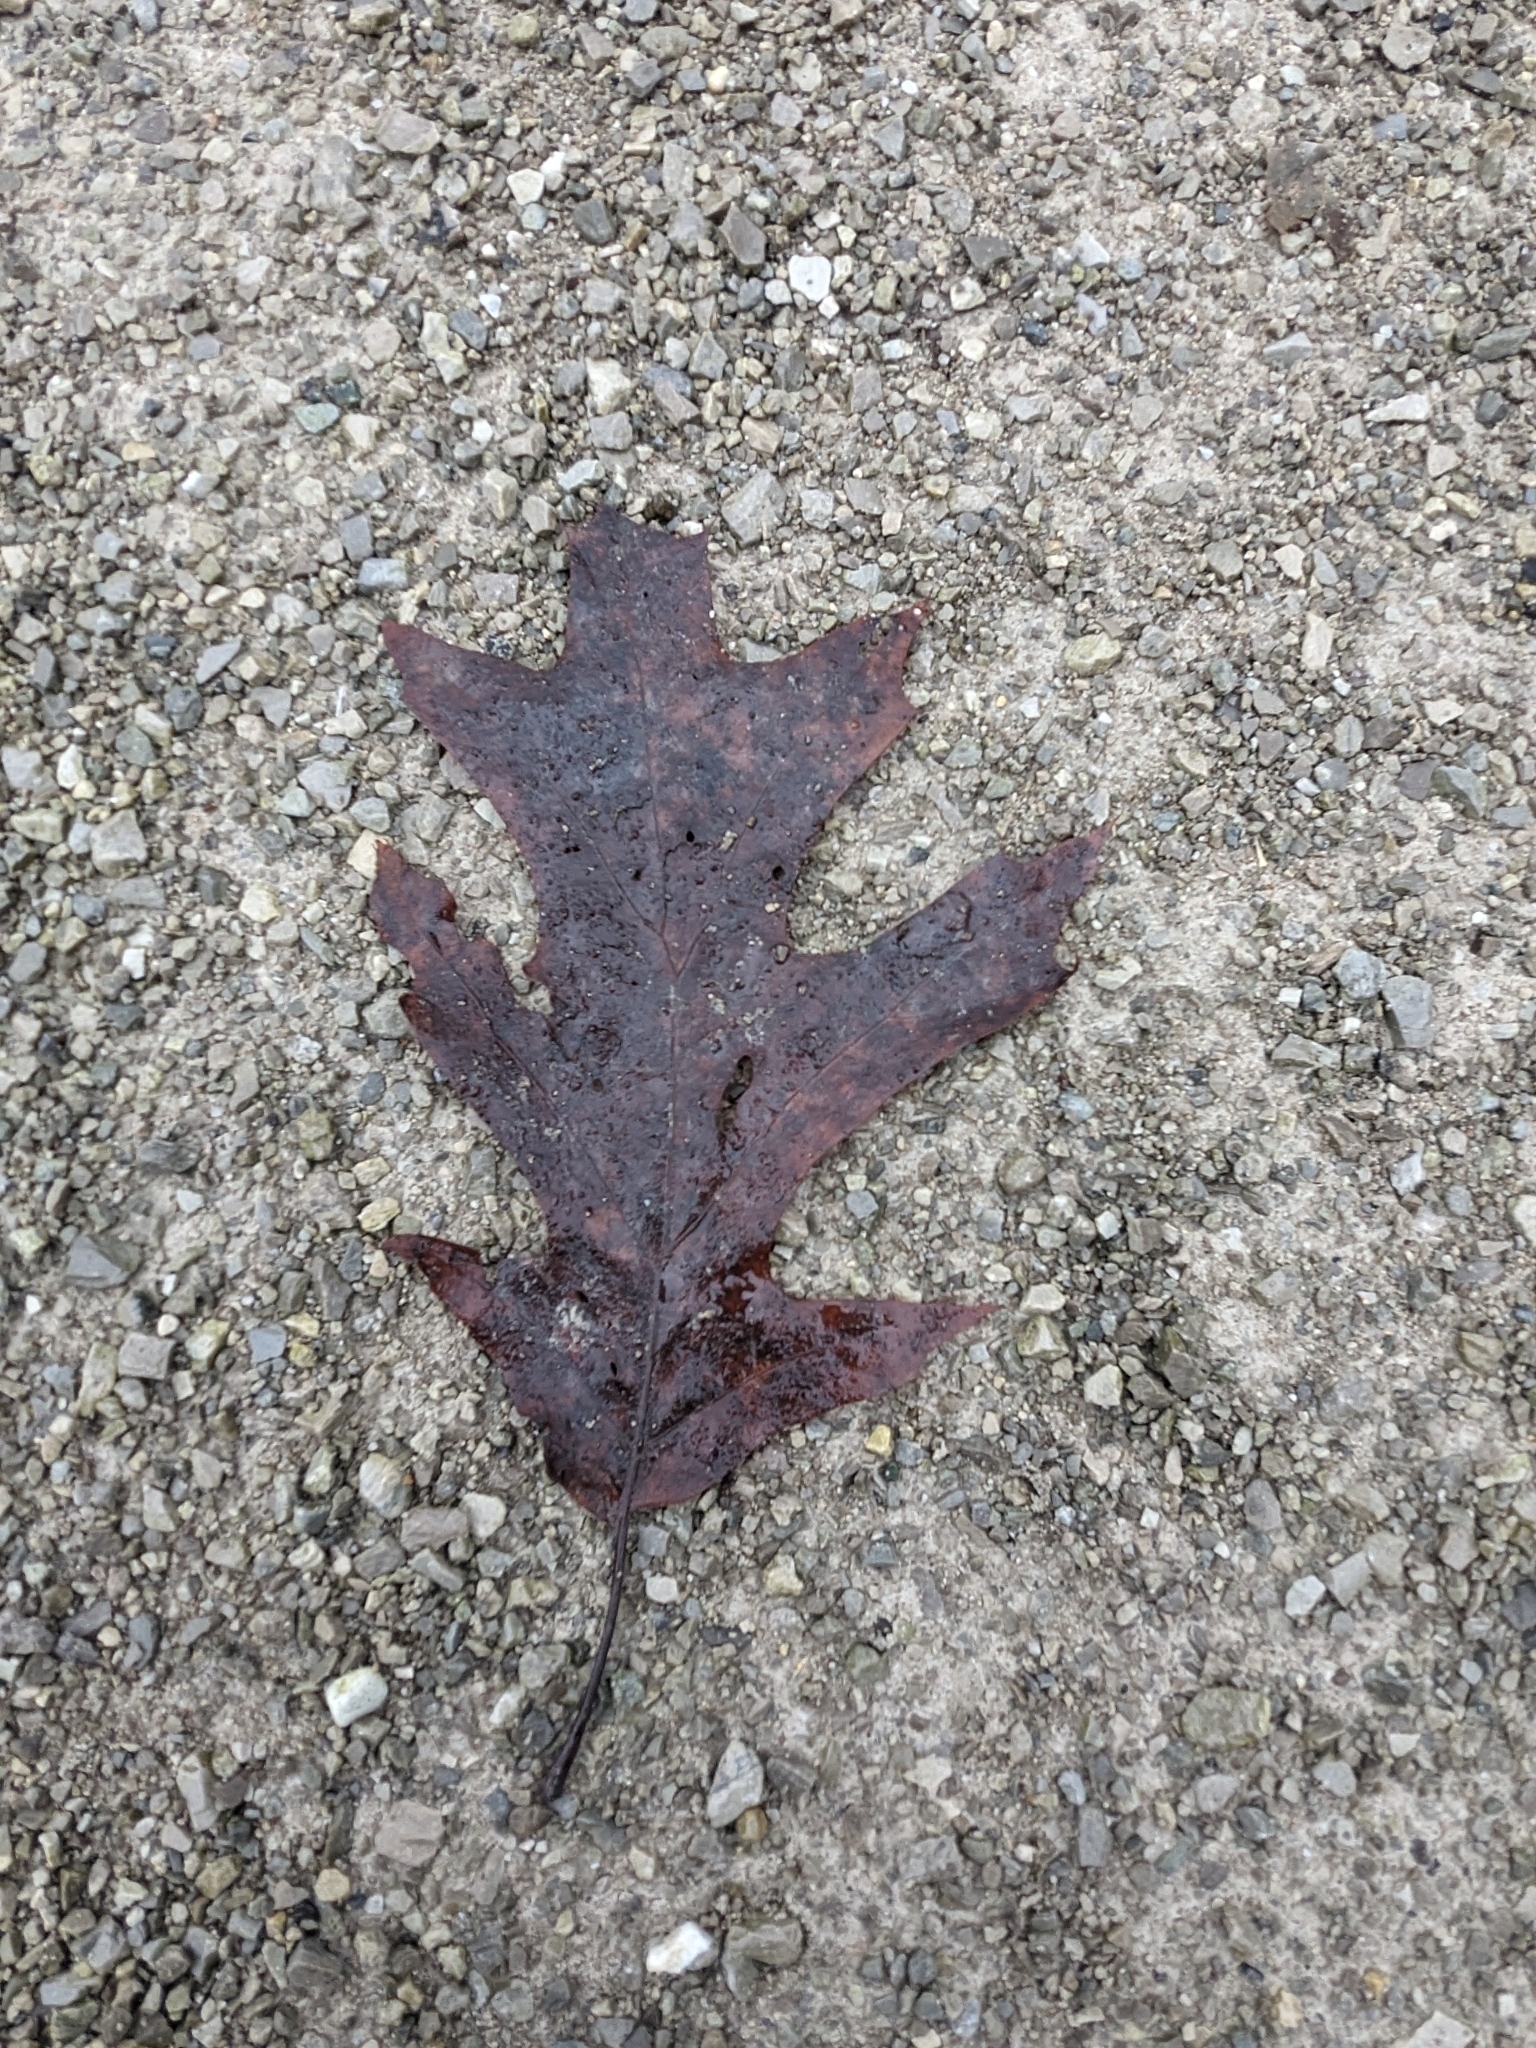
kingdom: Plantae
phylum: Tracheophyta
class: Magnoliopsida
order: Fagales
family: Fagaceae
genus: Quercus
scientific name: Quercus rubra
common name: Red oak
